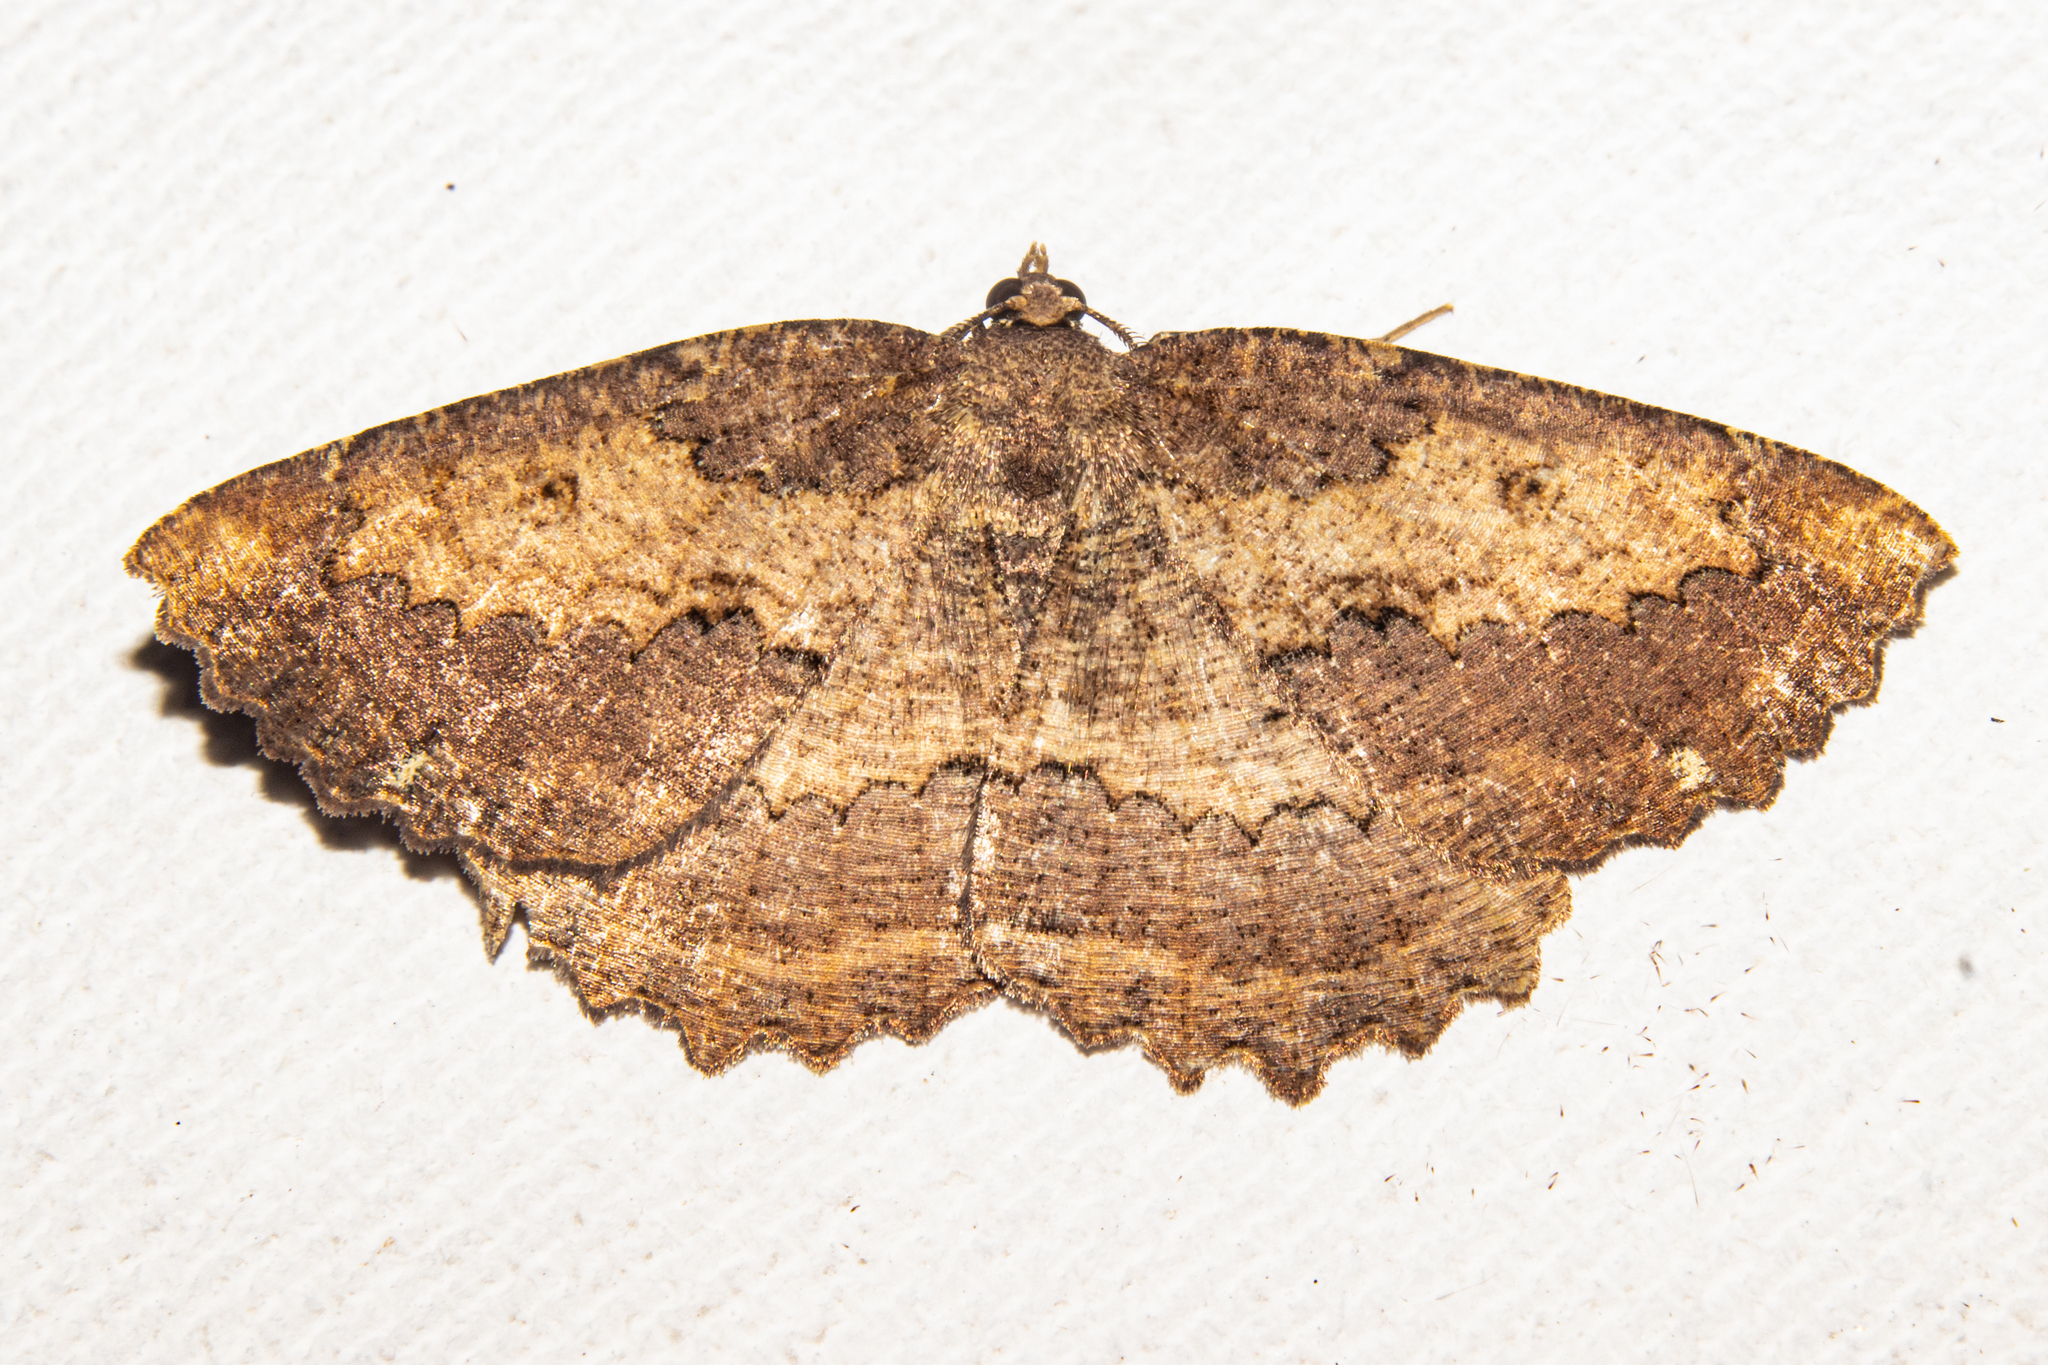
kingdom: Animalia
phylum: Arthropoda
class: Insecta
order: Lepidoptera
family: Geometridae
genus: Gellonia
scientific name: Gellonia pannularia
